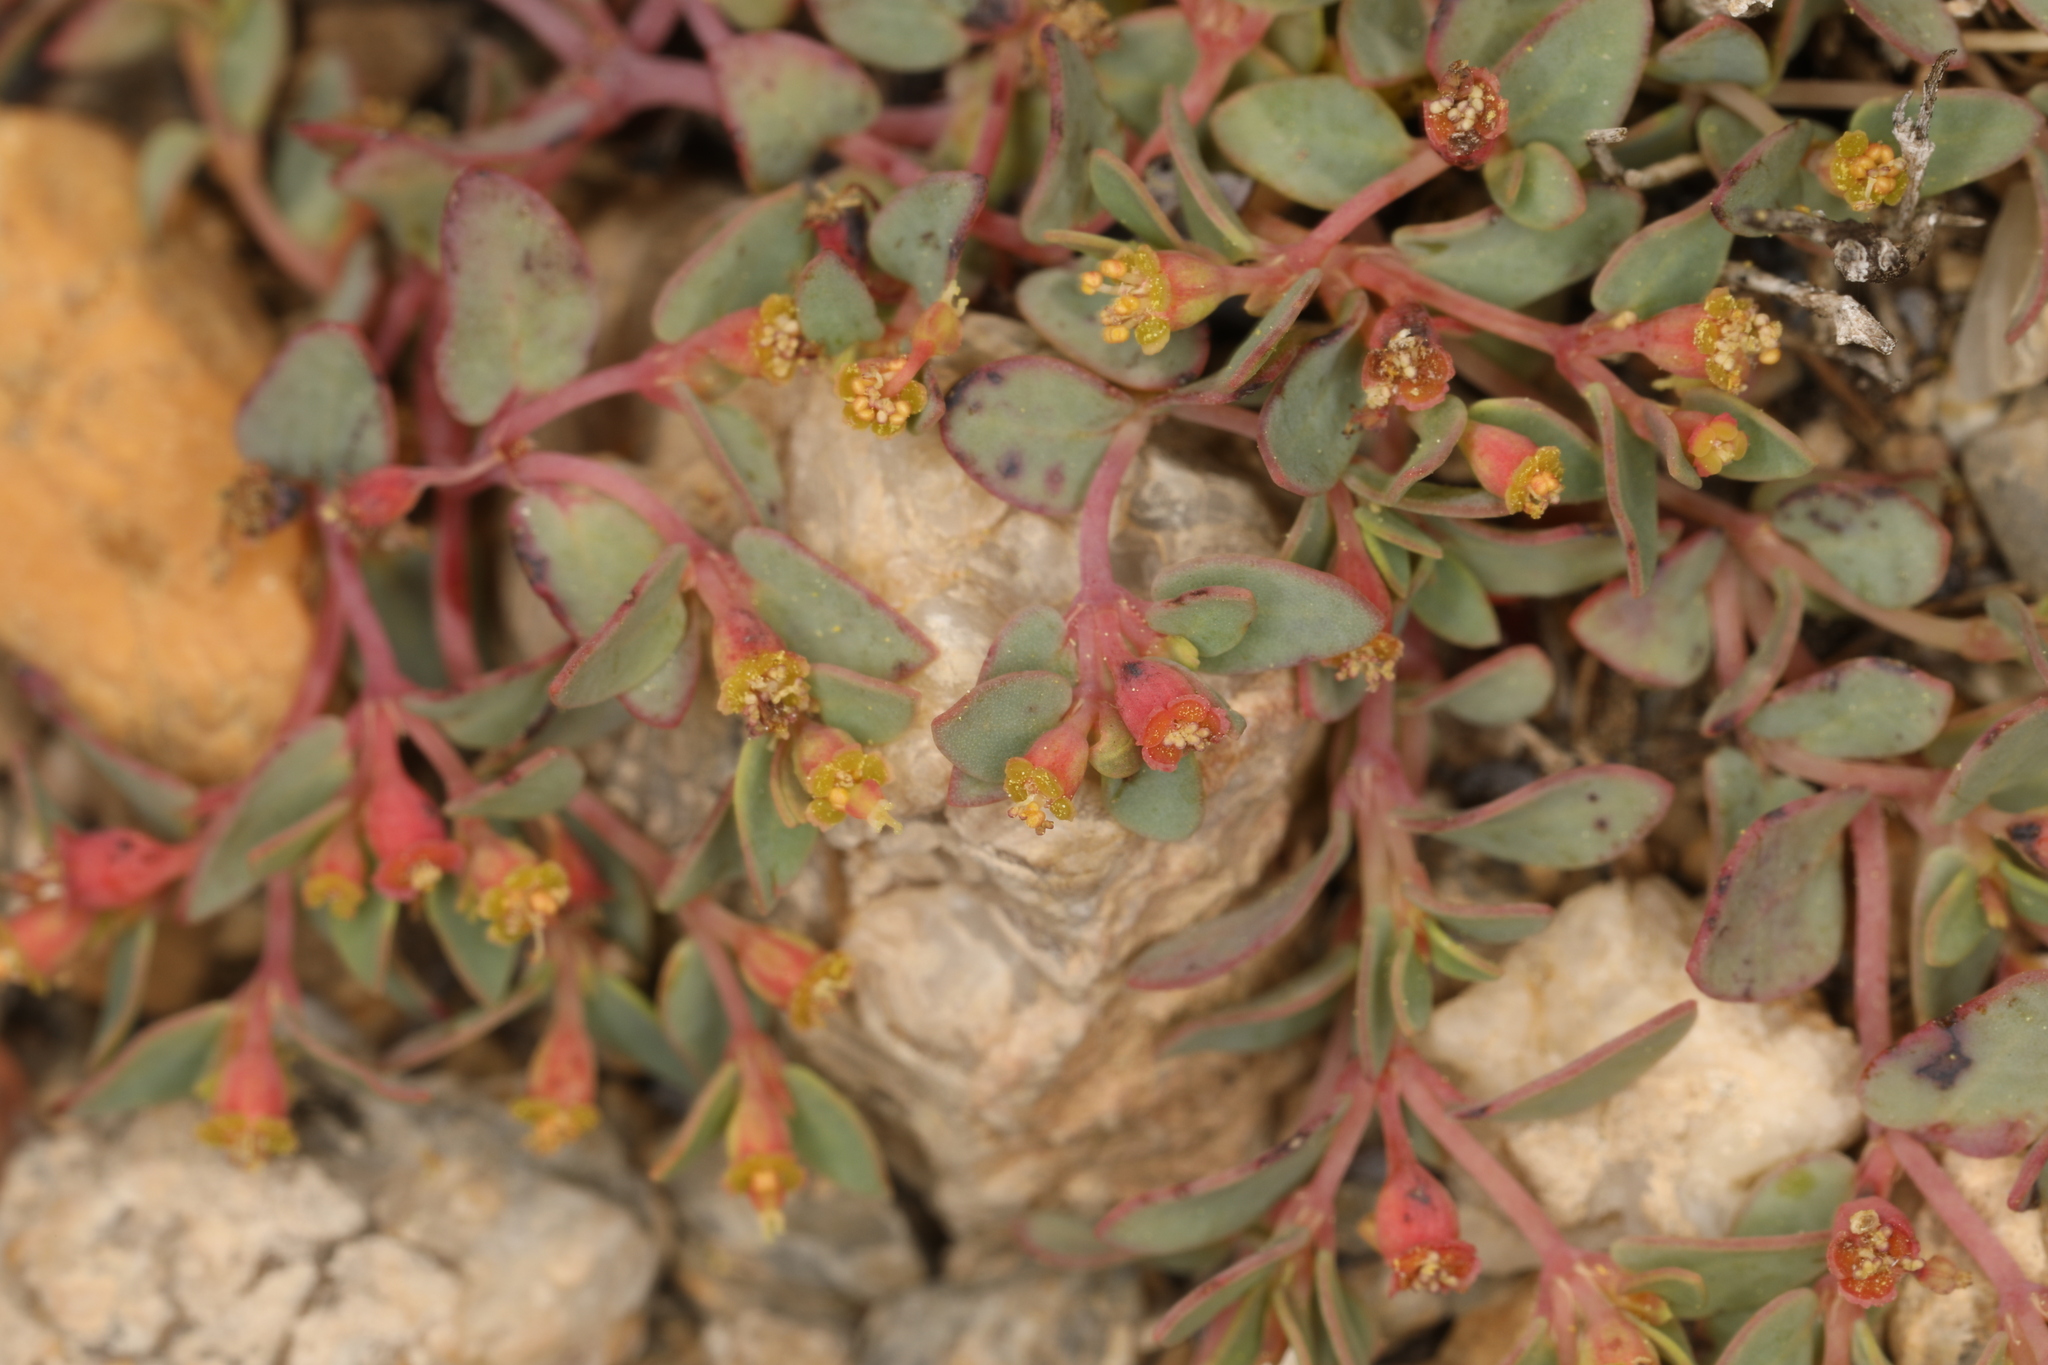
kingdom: Plantae
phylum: Tracheophyta
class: Magnoliopsida
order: Malpighiales
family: Euphorbiaceae
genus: Euphorbia
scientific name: Euphorbia fendleri
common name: Fendler's euphorbia
